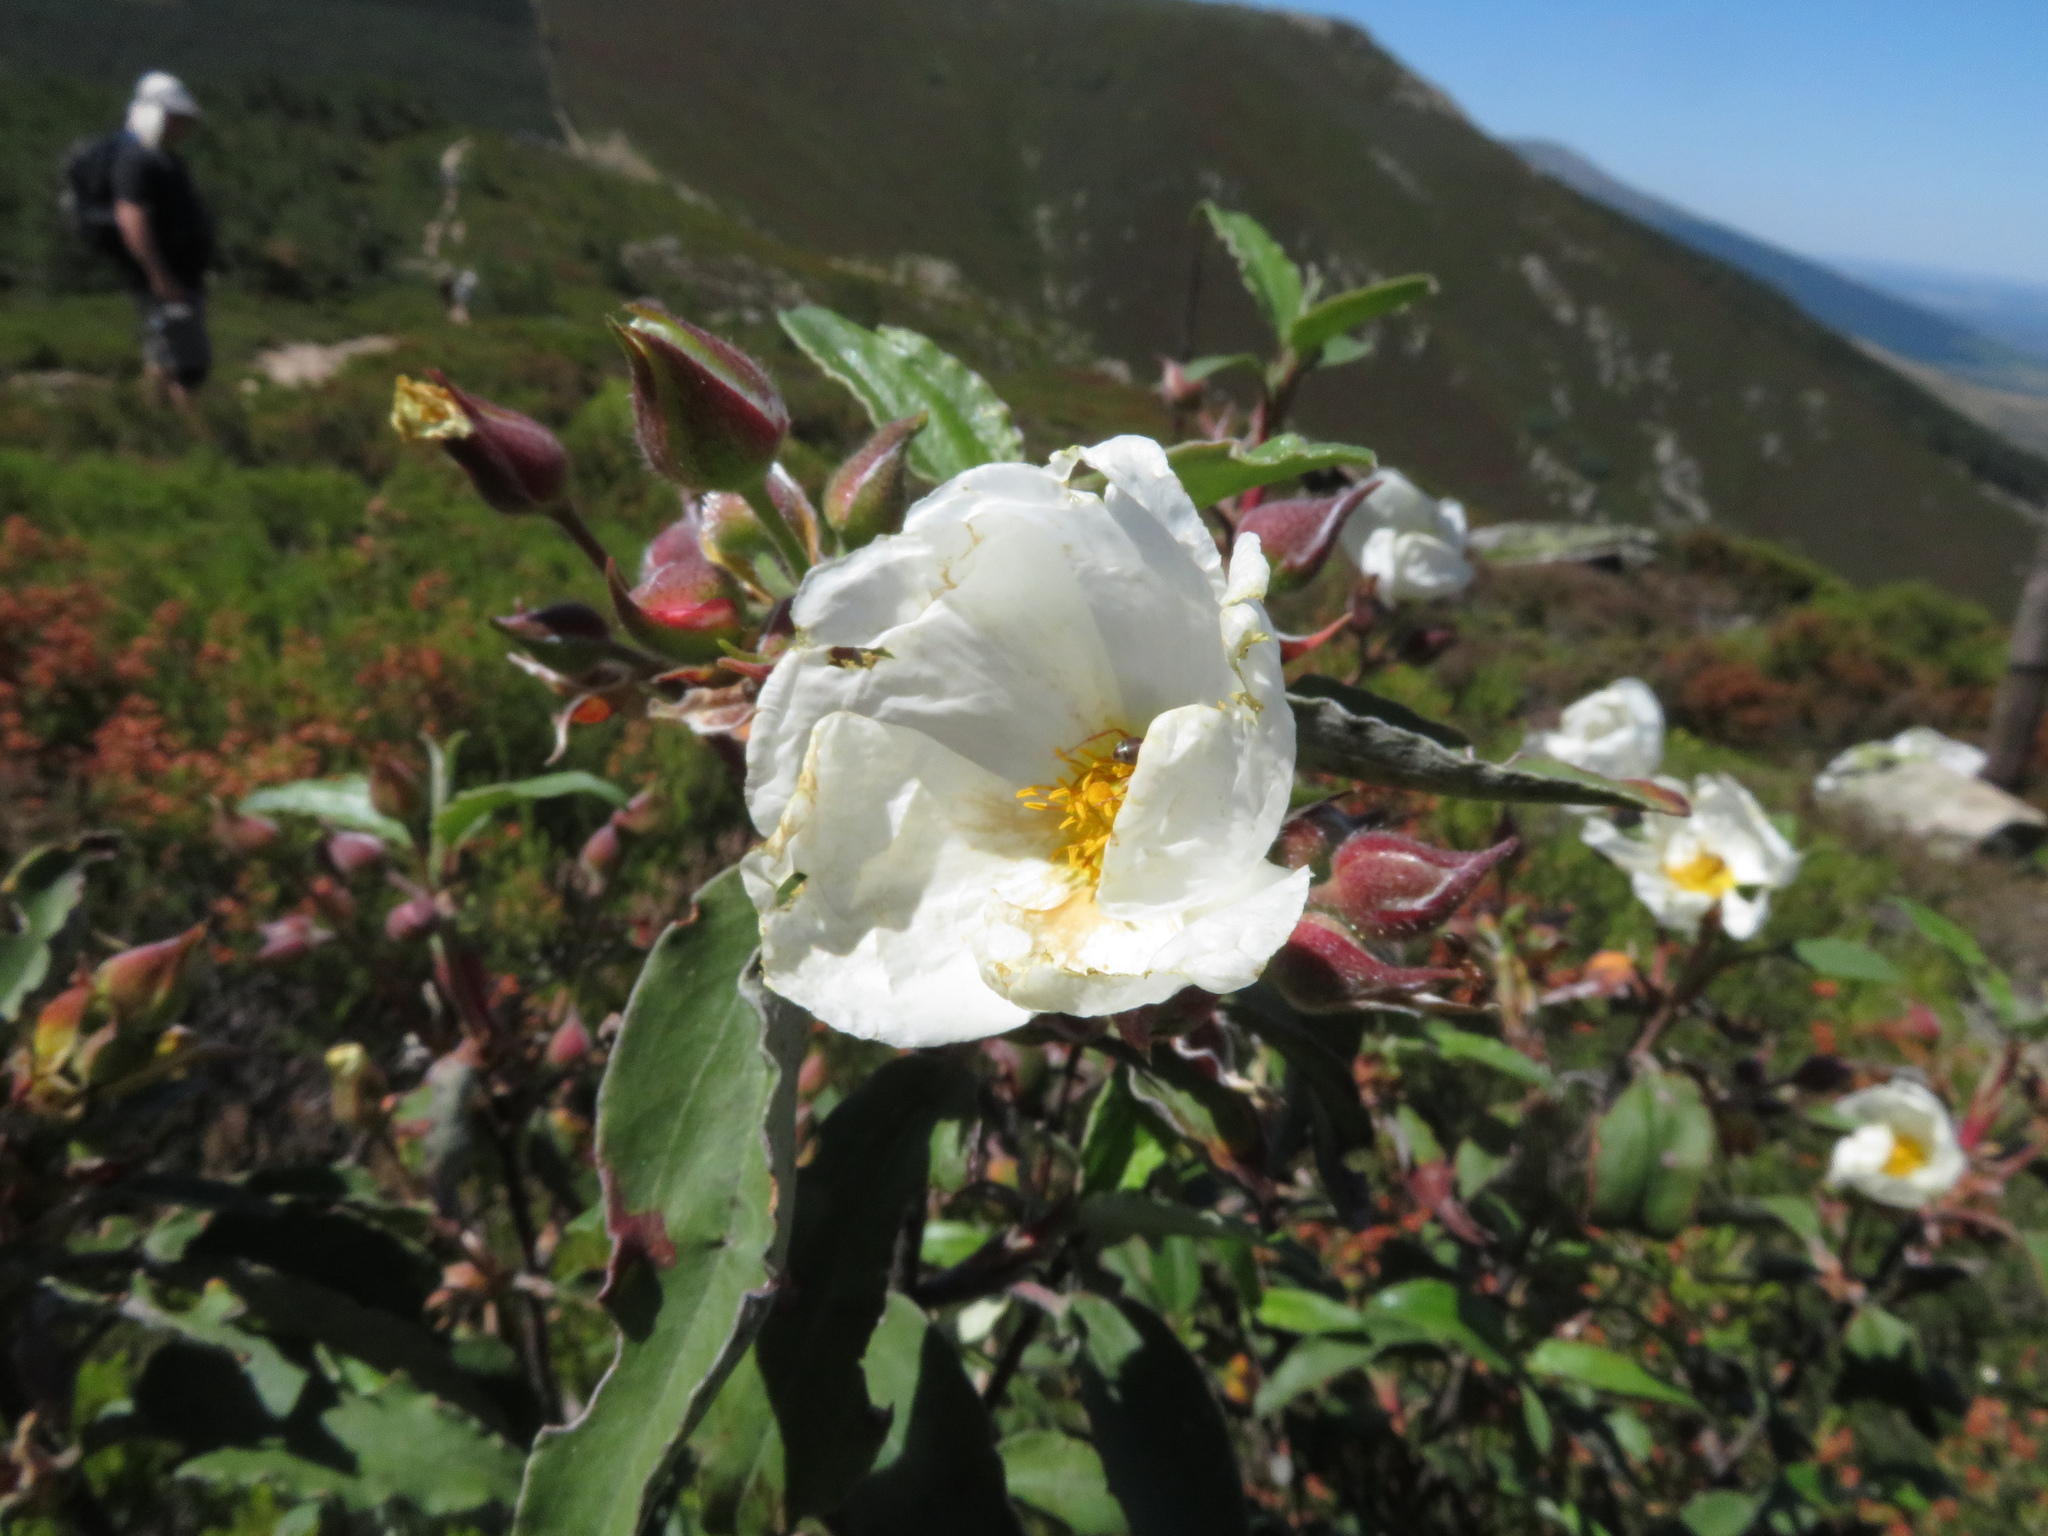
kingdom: Plantae
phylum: Tracheophyta
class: Magnoliopsida
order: Malvales
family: Cistaceae
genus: Cistus
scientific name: Cistus laurifolius
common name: Laurel-leaved cistus
